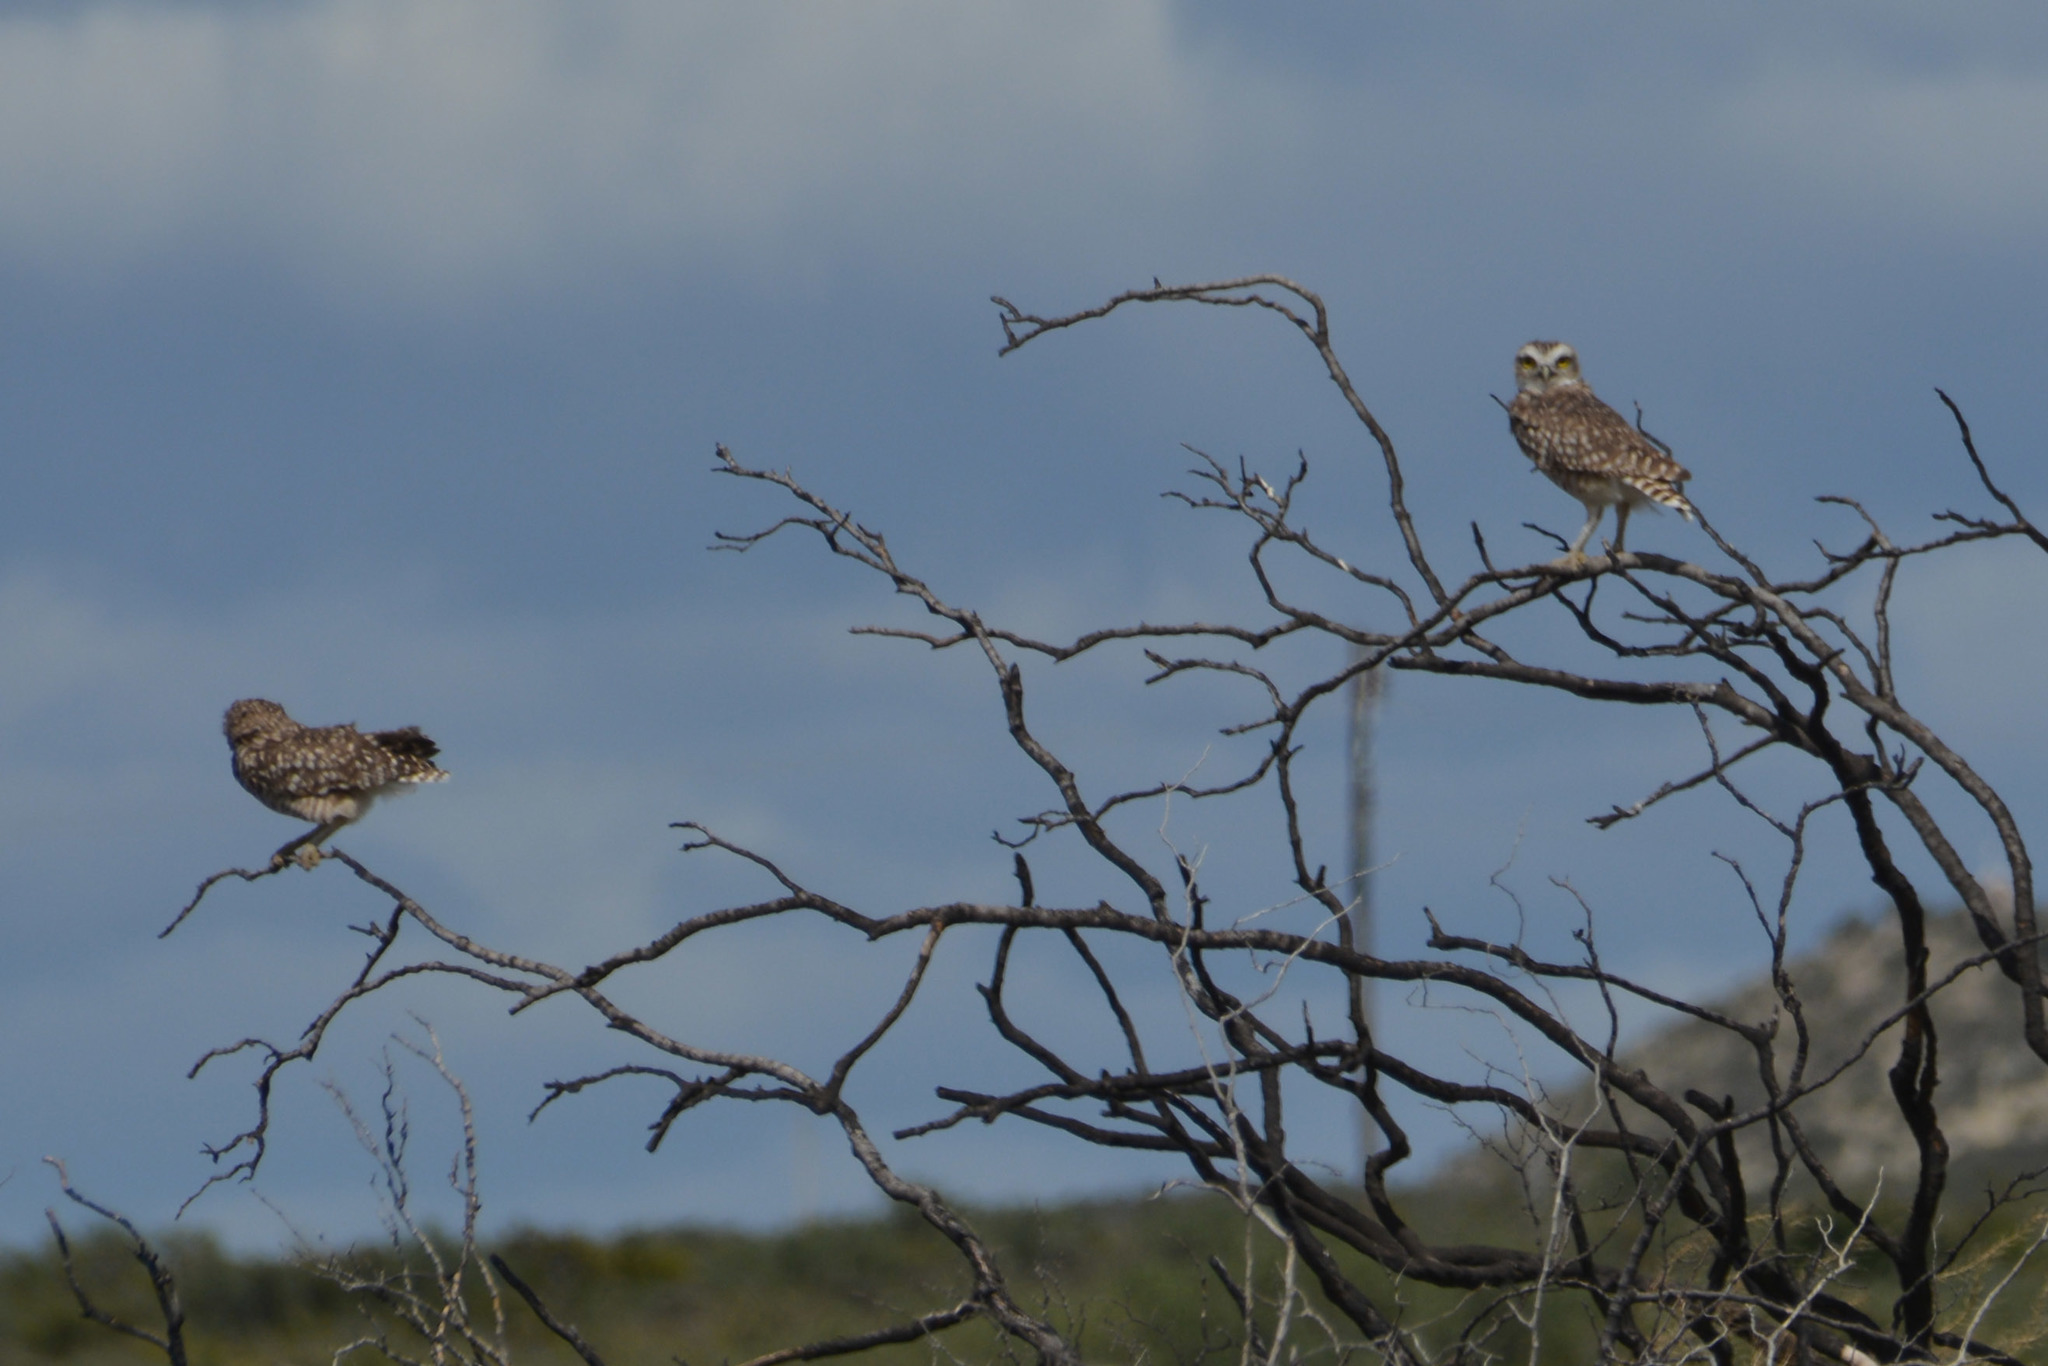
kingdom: Animalia
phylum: Chordata
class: Aves
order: Strigiformes
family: Strigidae
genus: Athene
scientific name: Athene cunicularia
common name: Burrowing owl
